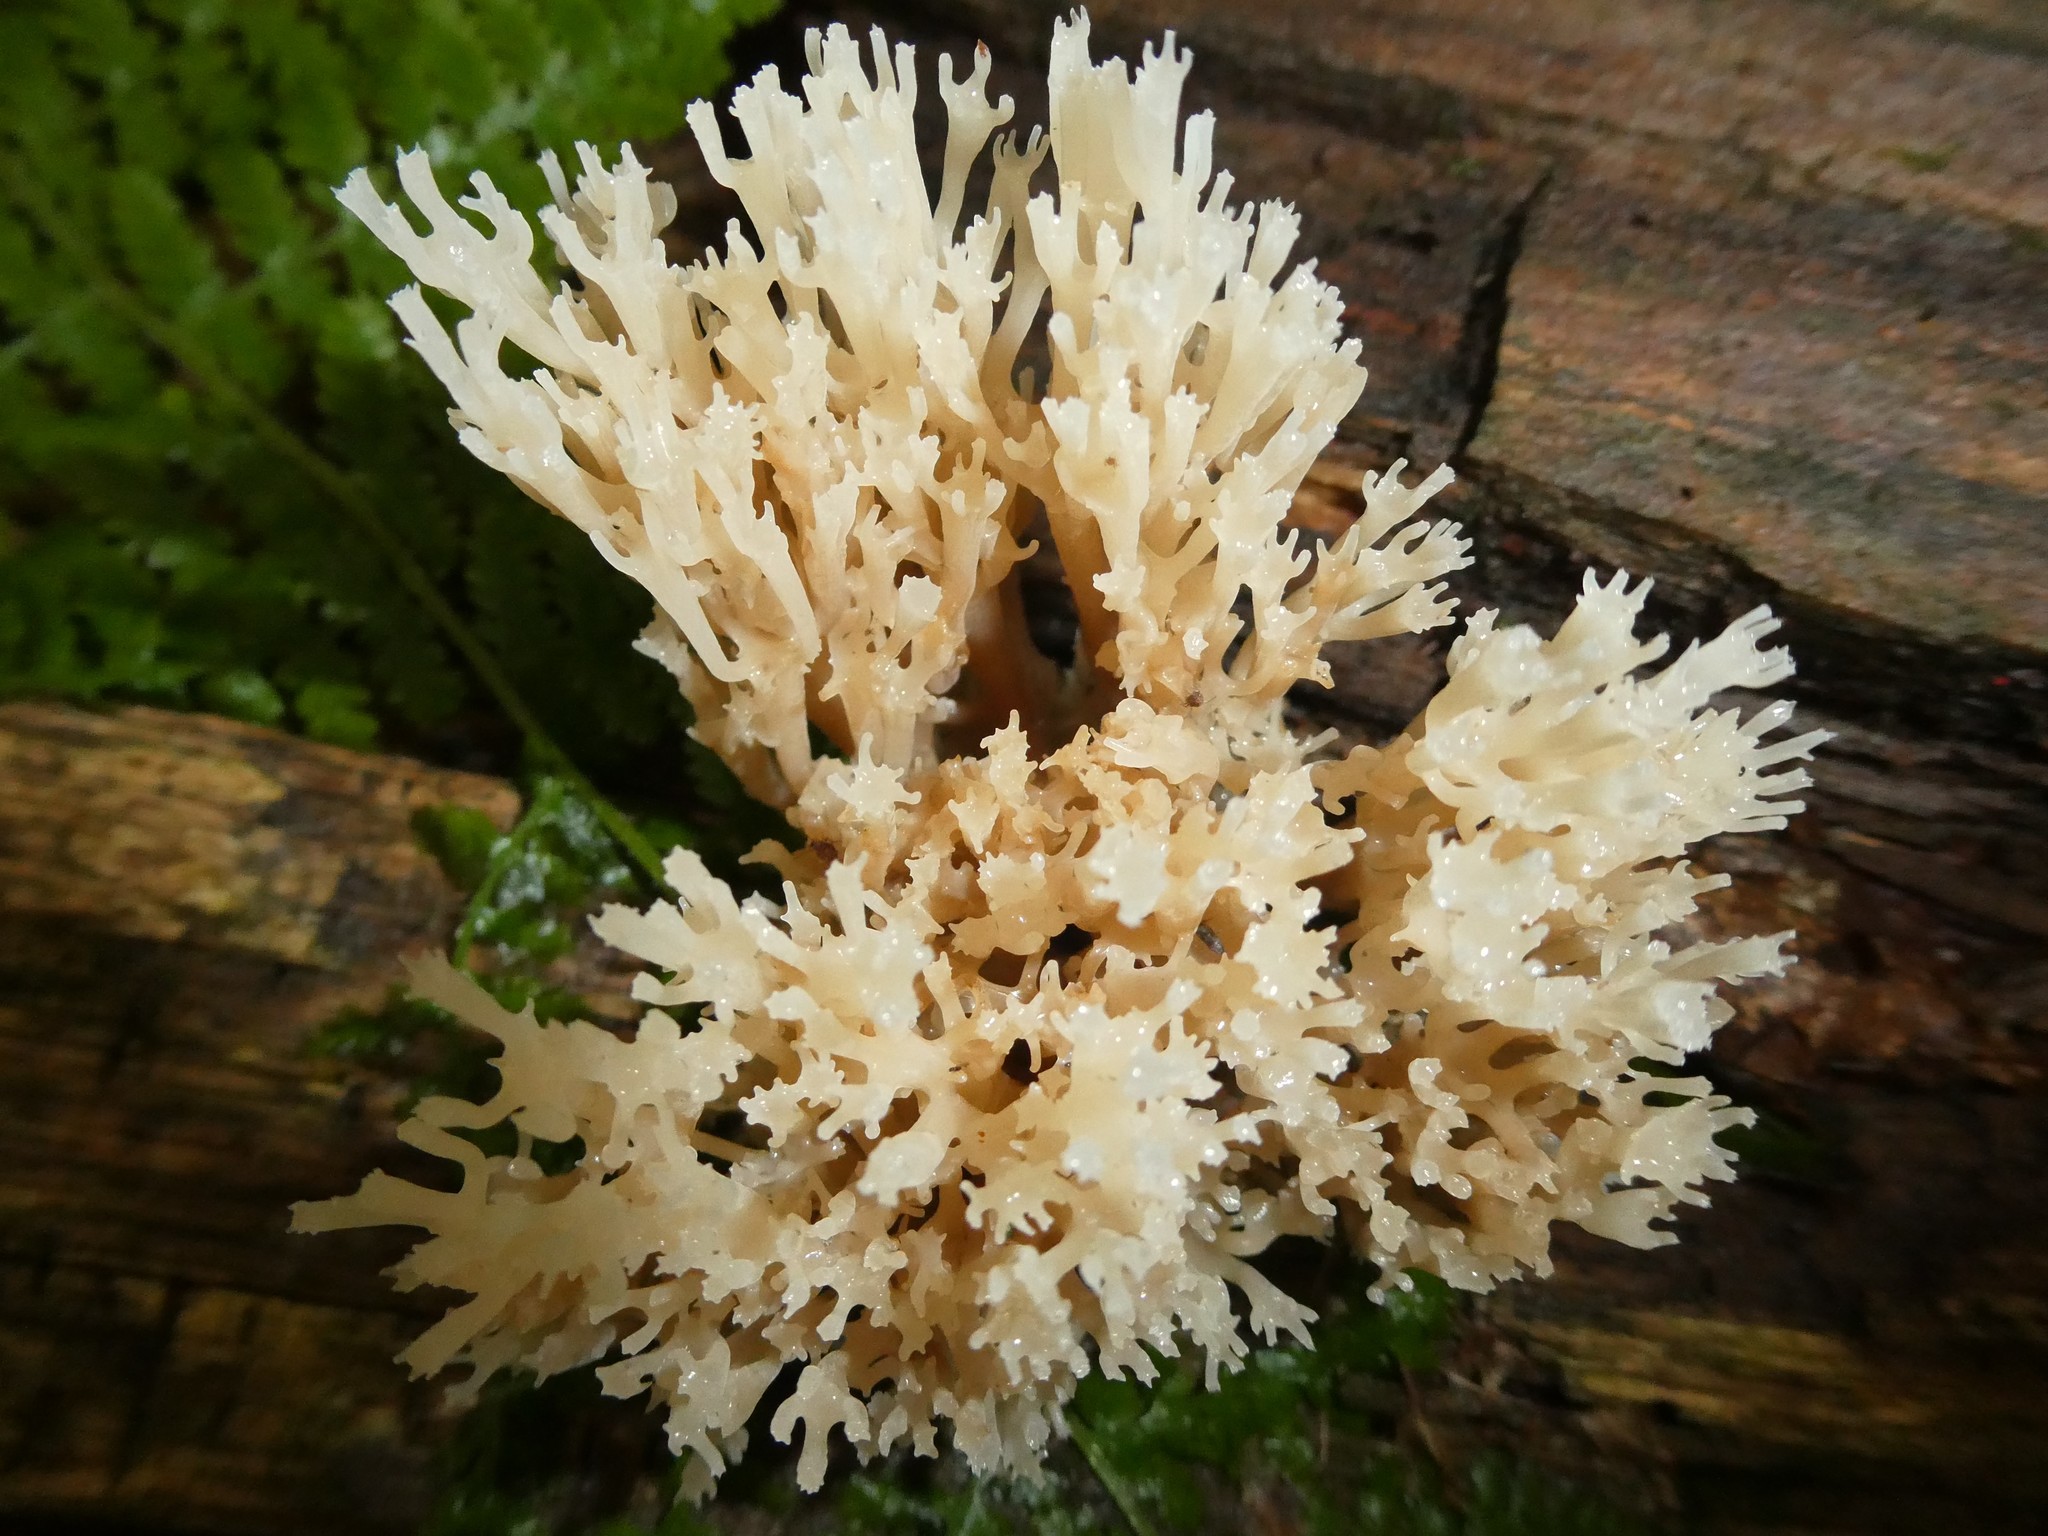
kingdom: Fungi
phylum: Basidiomycota
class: Agaricomycetes
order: Russulales
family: Auriscalpiaceae
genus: Artomyces
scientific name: Artomyces pyxidatus
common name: Crown-tipped coral fungus
